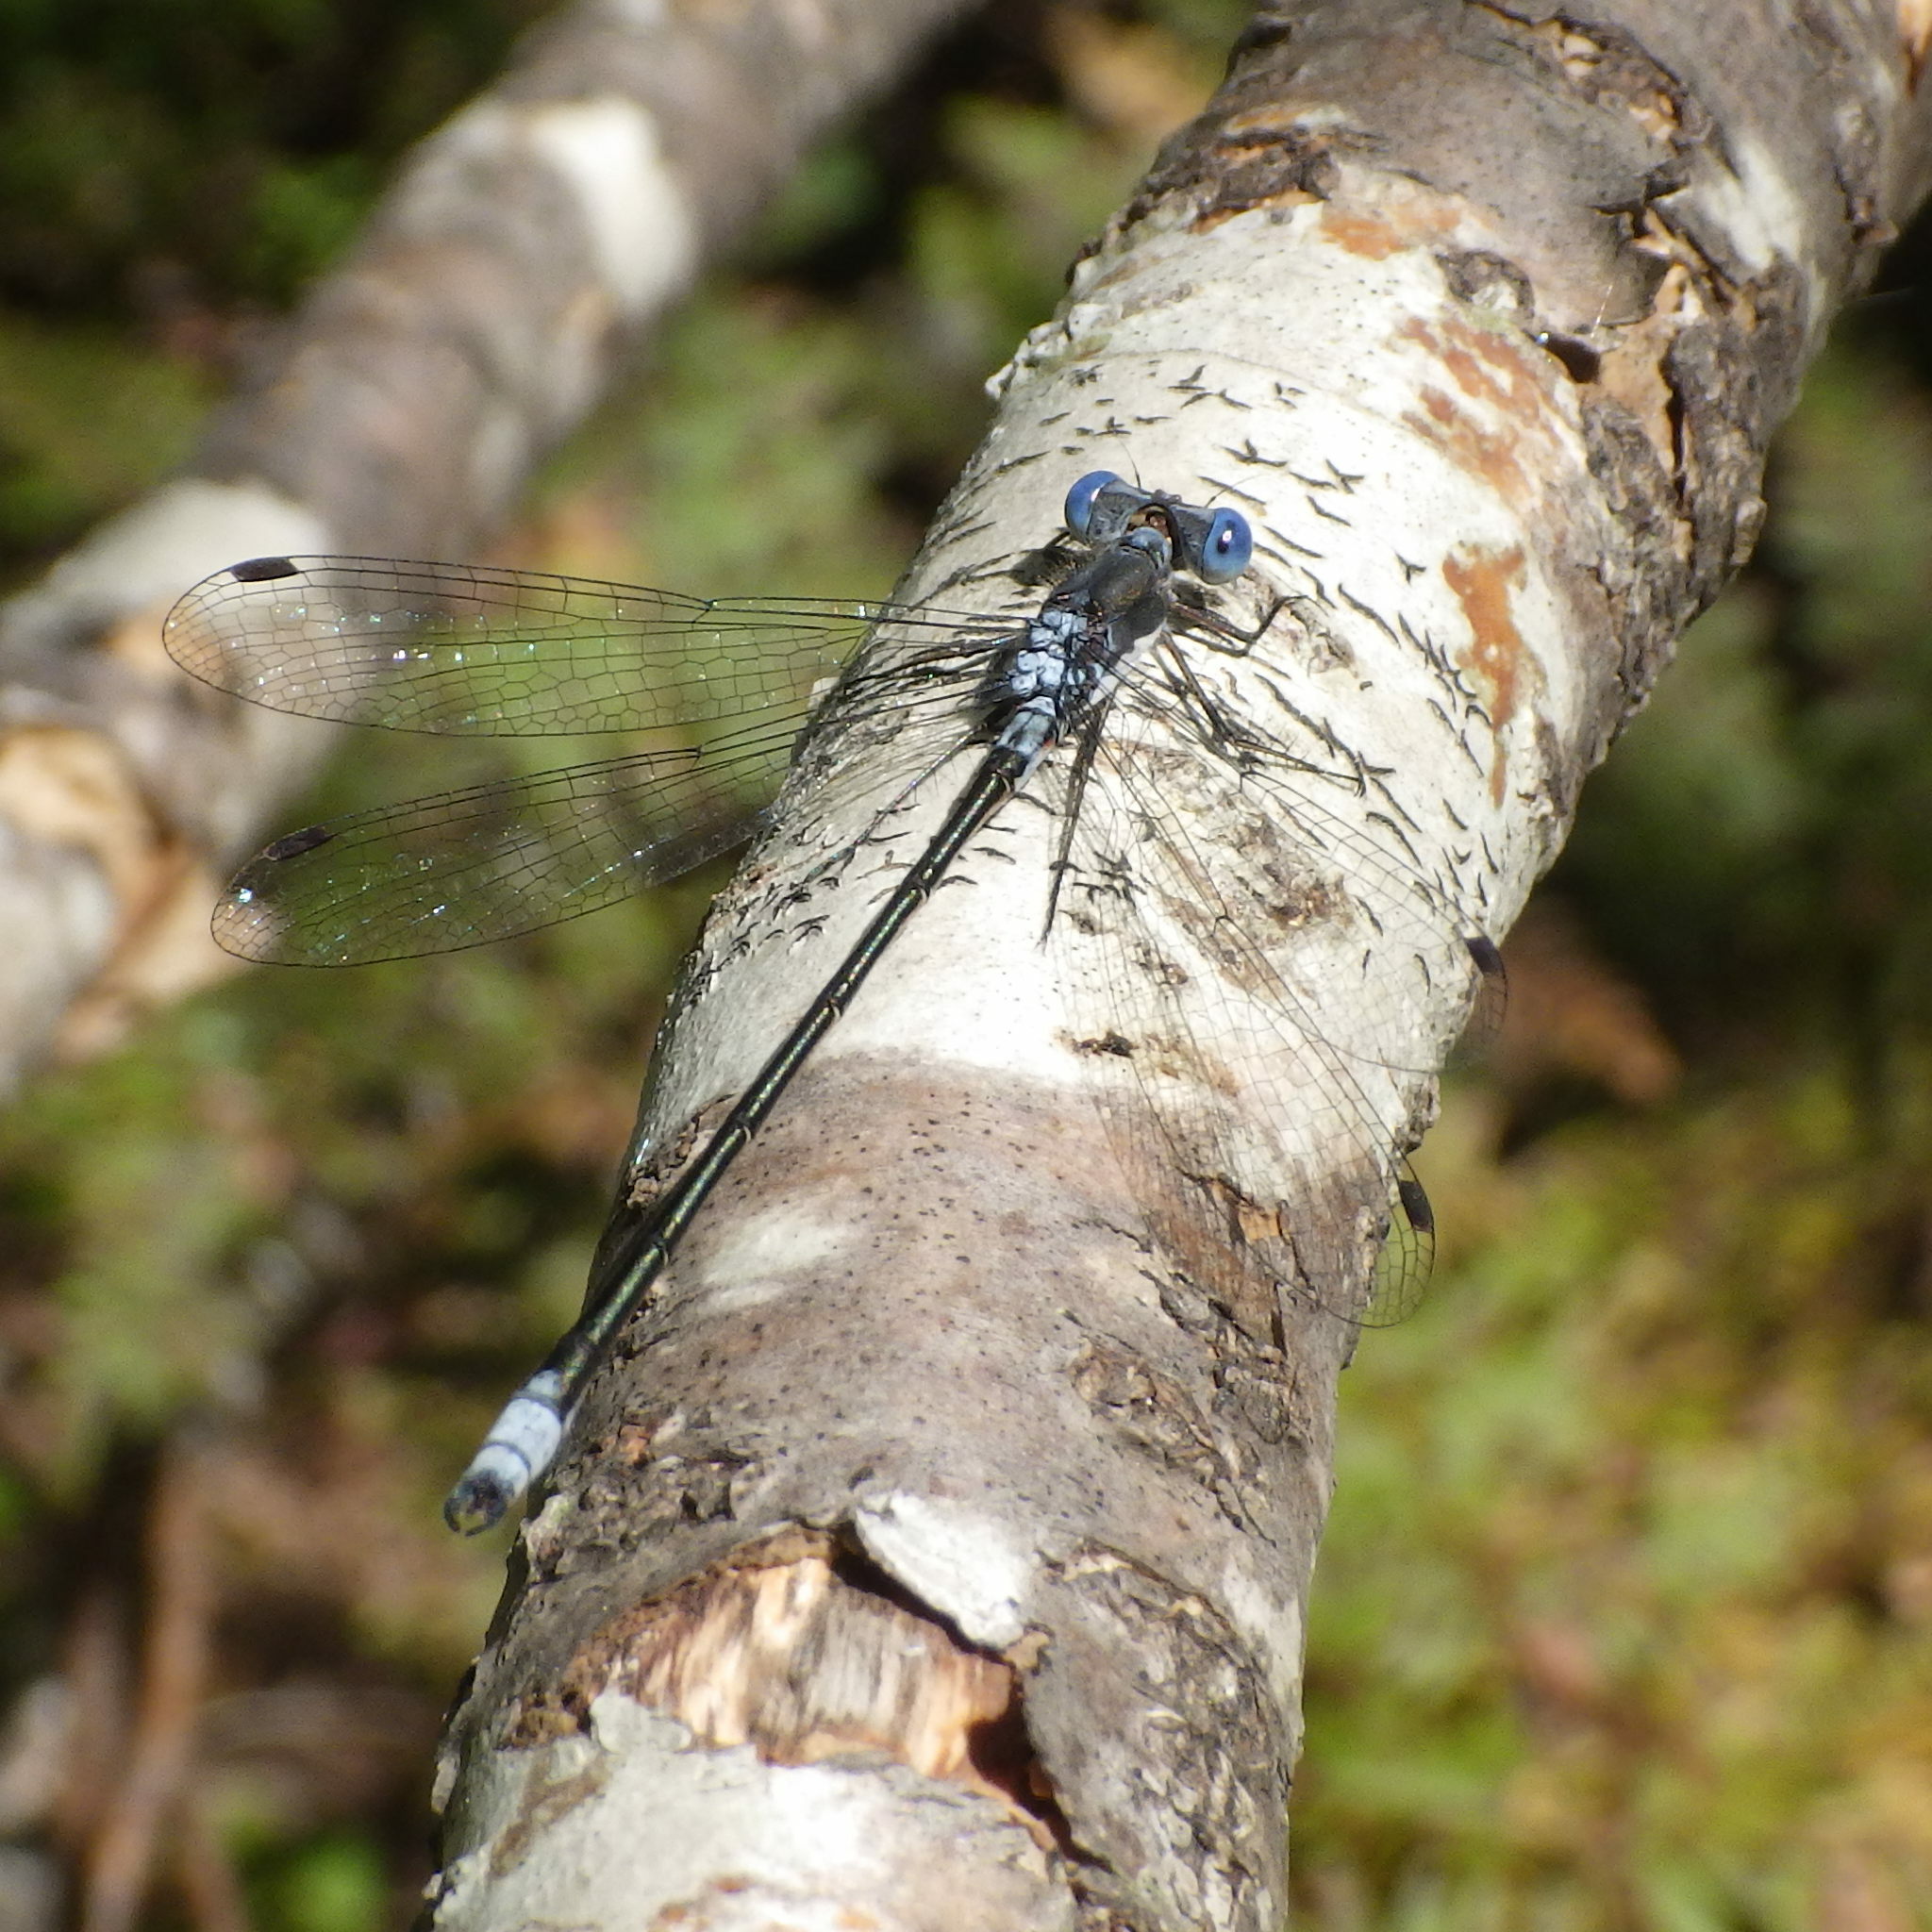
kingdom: Animalia
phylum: Arthropoda
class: Insecta
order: Odonata
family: Lestidae
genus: Lestes
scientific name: Lestes congener
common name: Spotted spreadwing
